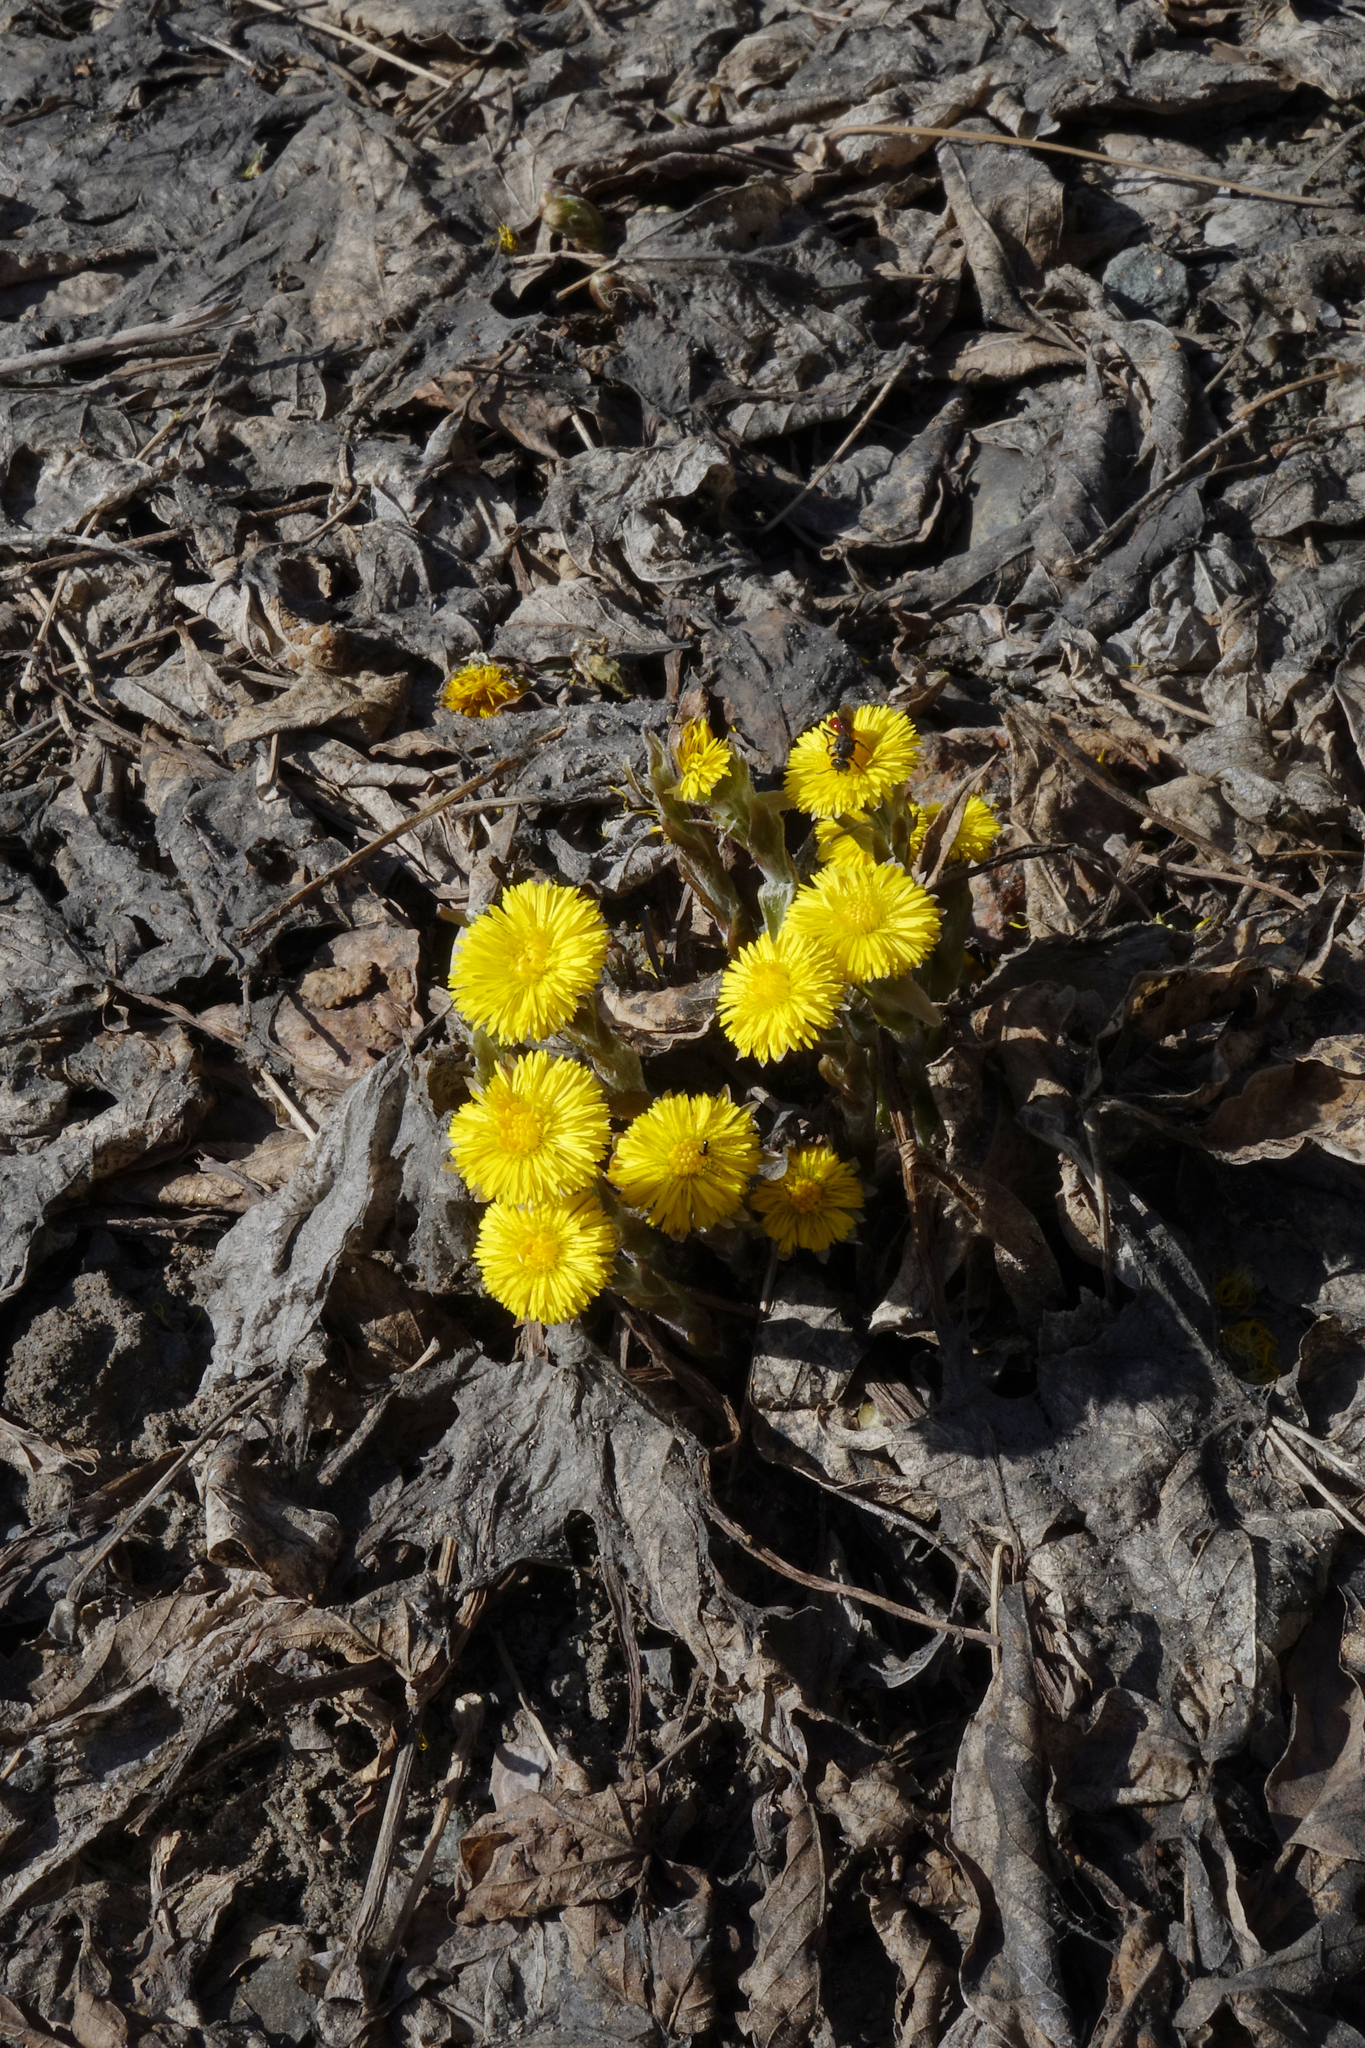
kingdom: Plantae
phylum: Tracheophyta
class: Magnoliopsida
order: Asterales
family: Asteraceae
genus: Tussilago
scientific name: Tussilago farfara
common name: Coltsfoot
